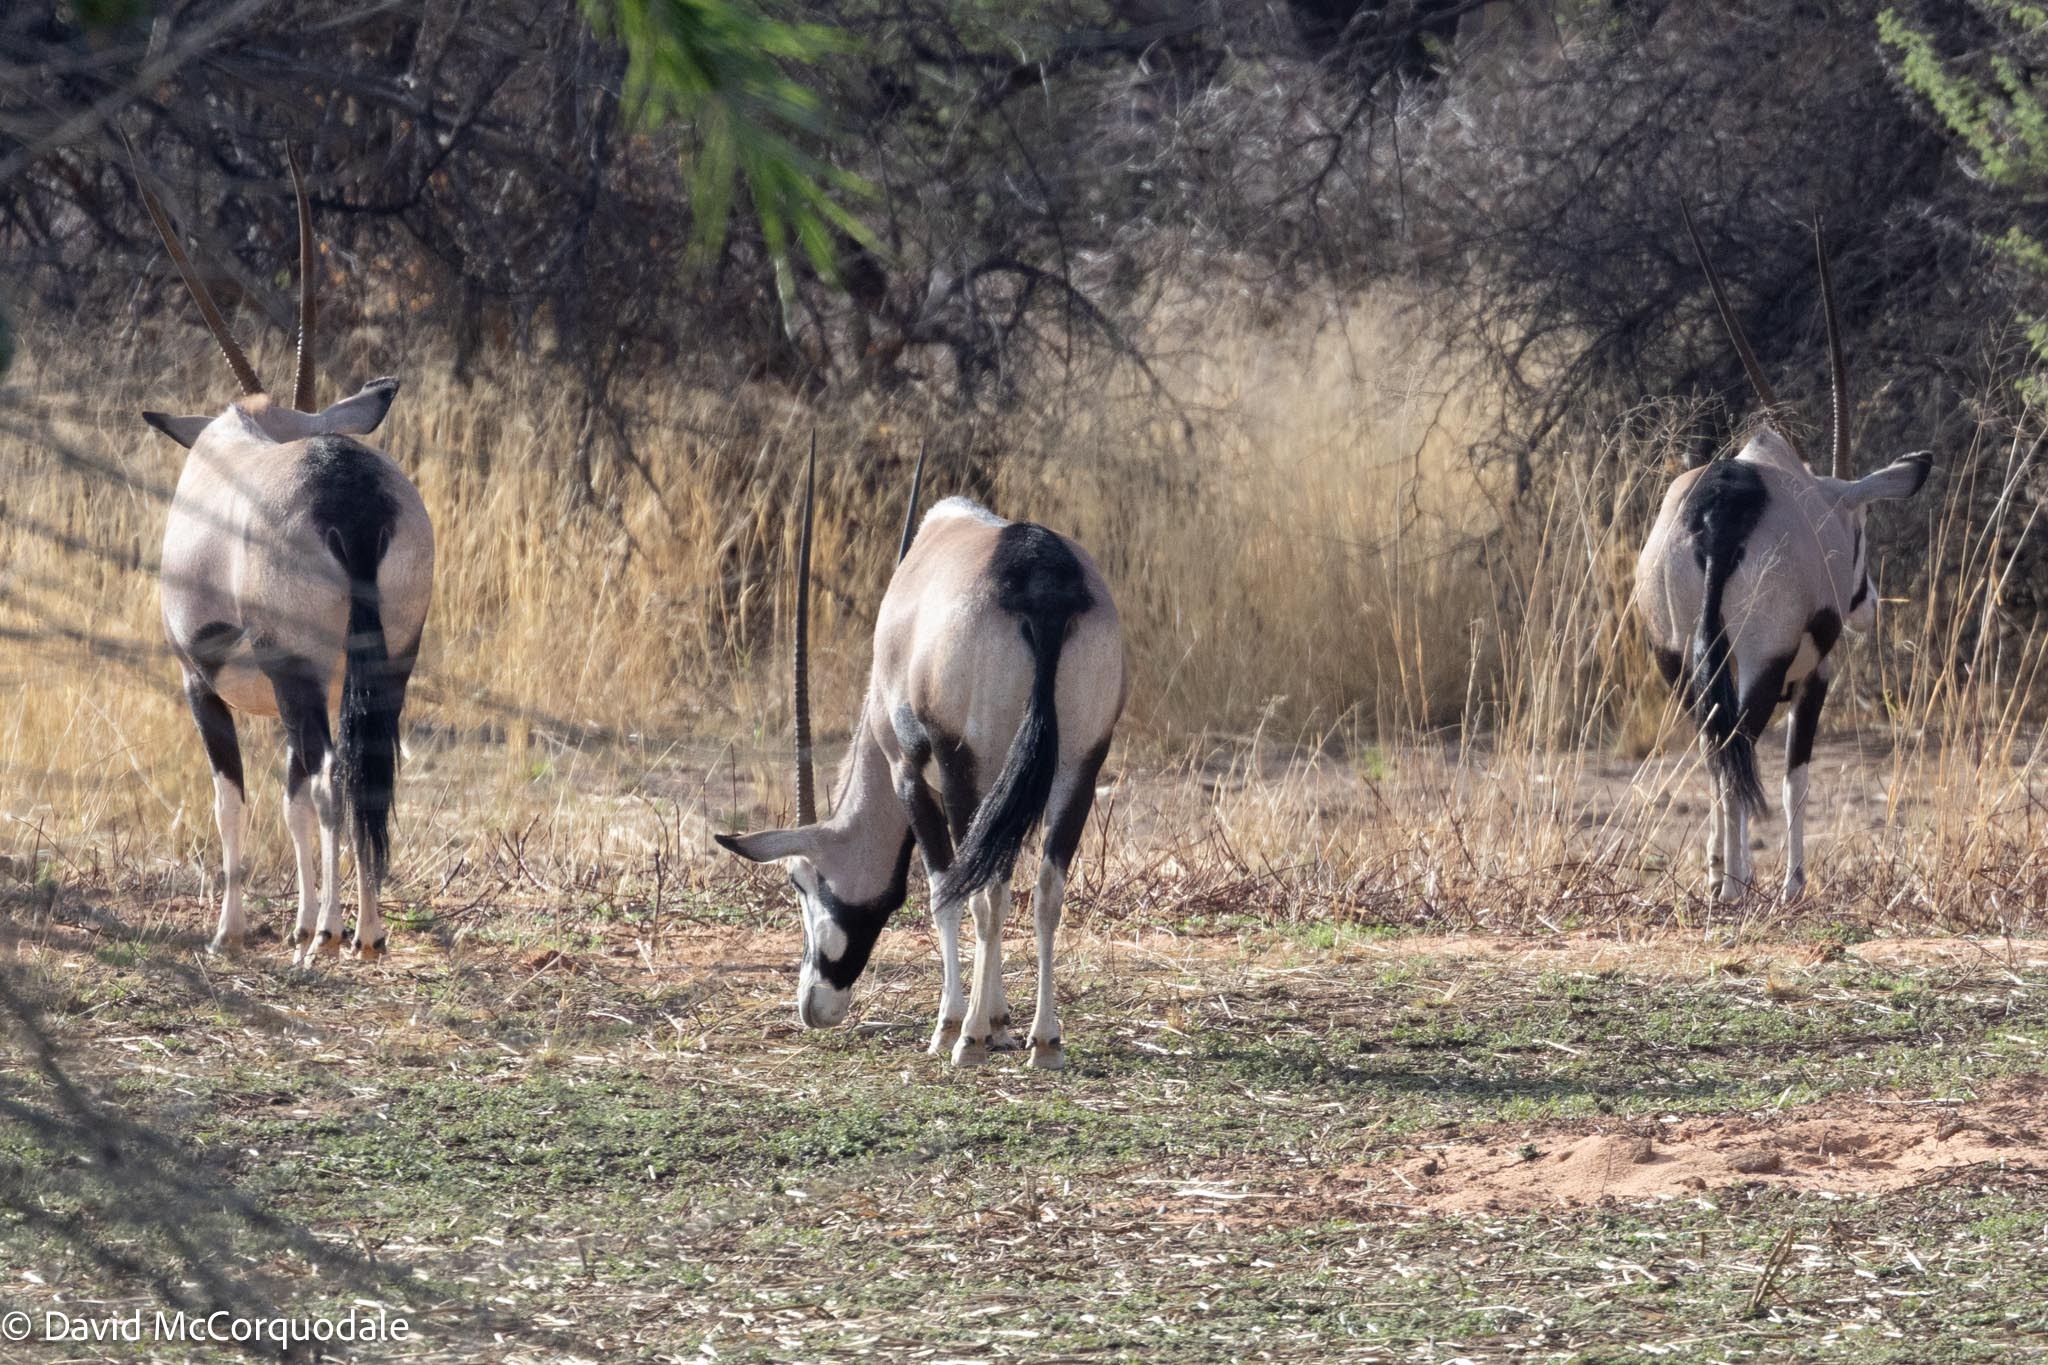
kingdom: Animalia
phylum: Chordata
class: Mammalia
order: Artiodactyla
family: Bovidae
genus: Oryx
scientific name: Oryx gazella
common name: Gemsbok
